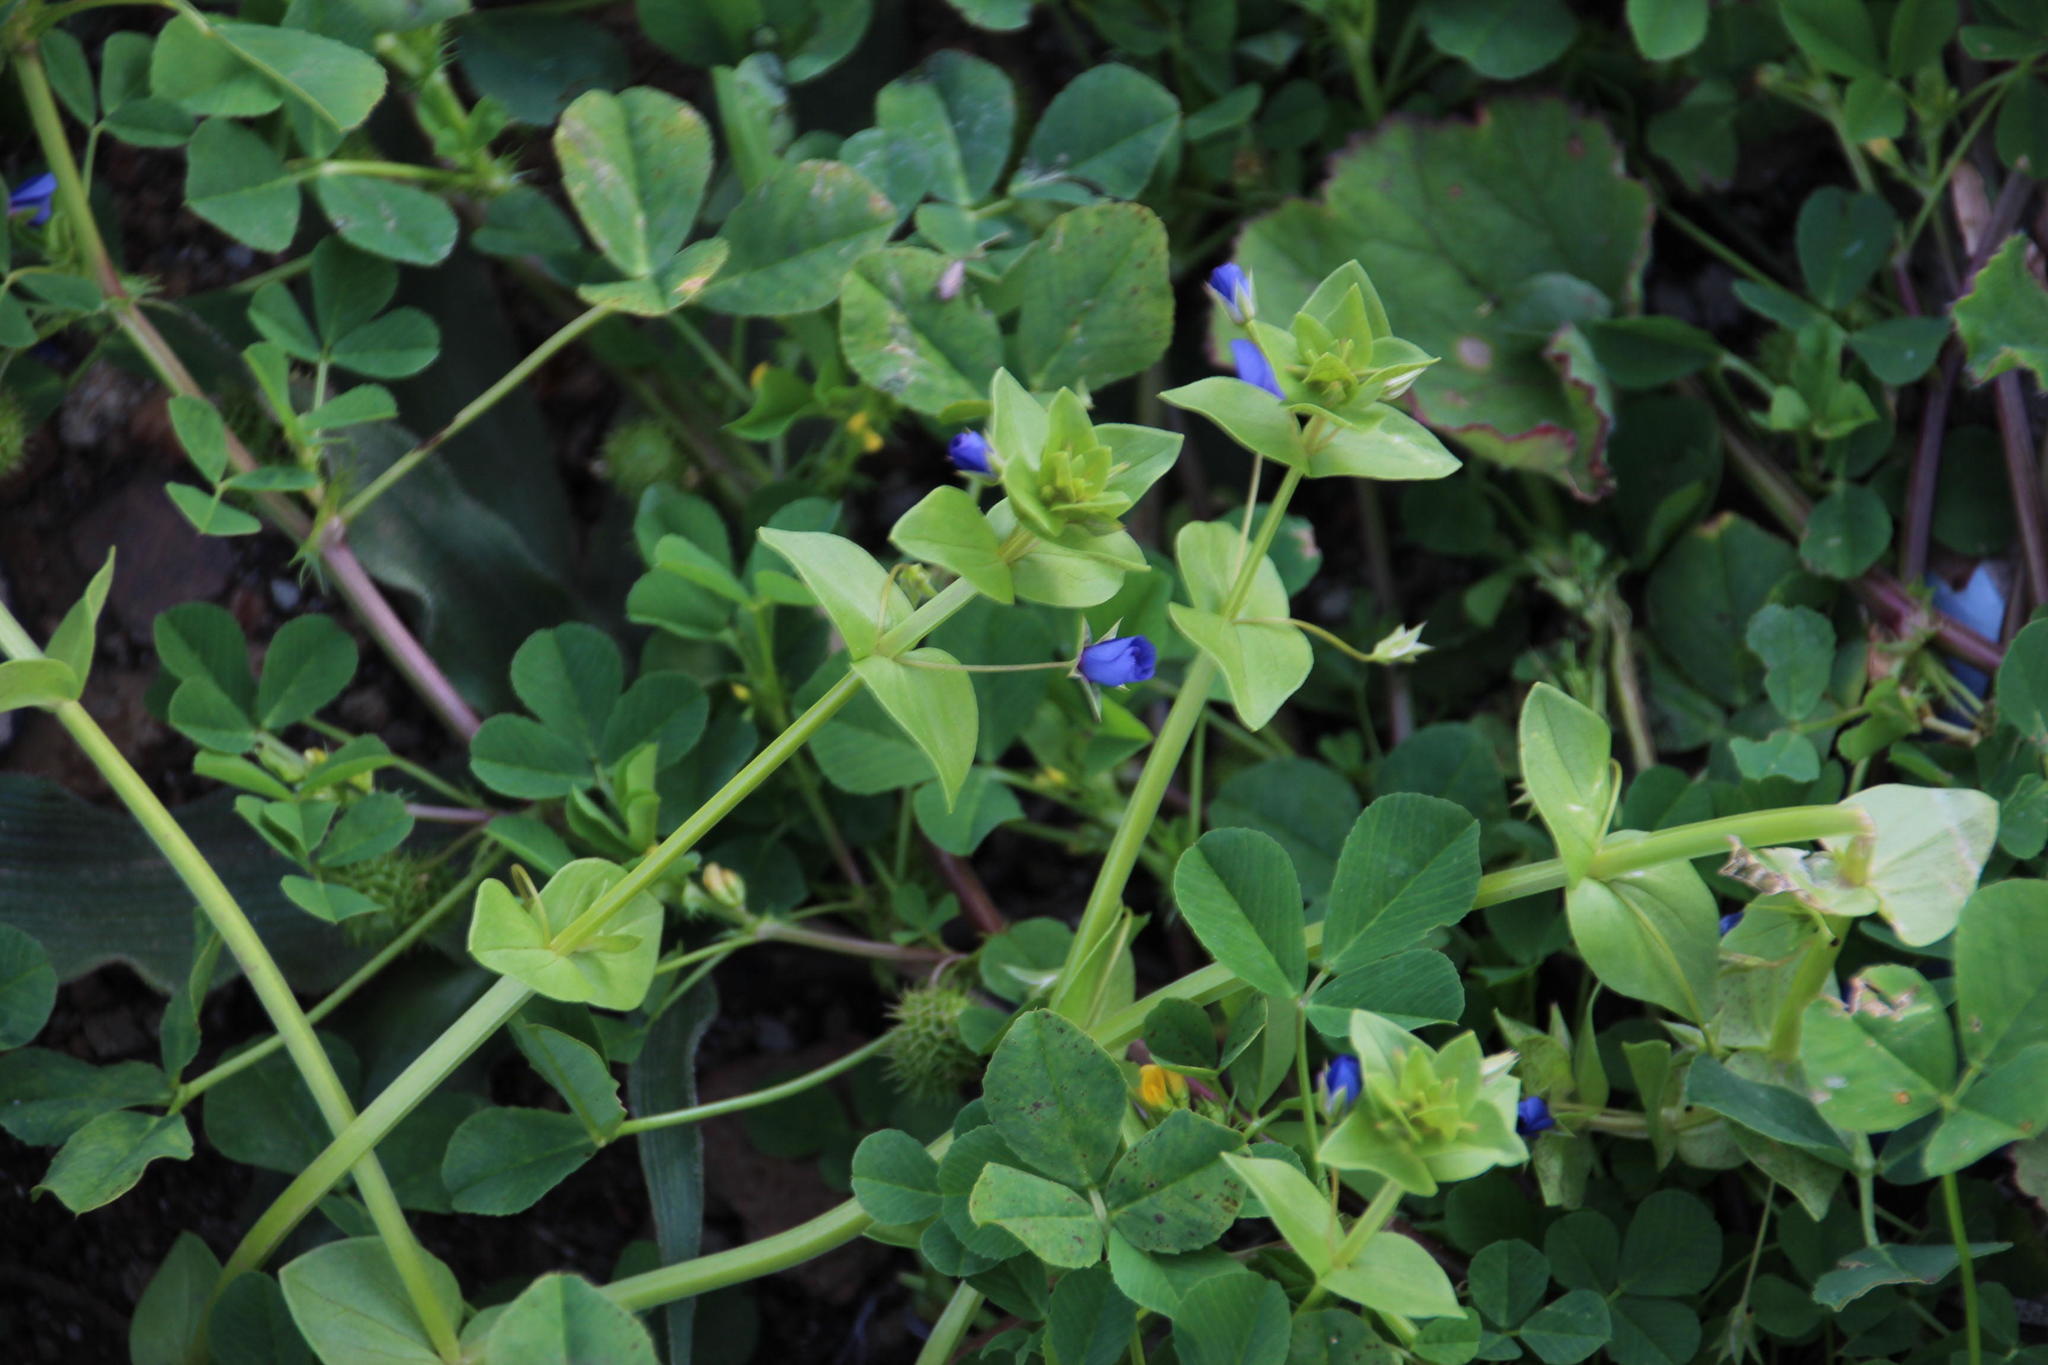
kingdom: Plantae
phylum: Tracheophyta
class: Magnoliopsida
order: Ericales
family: Primulaceae
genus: Lysimachia
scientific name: Lysimachia loeflingii
